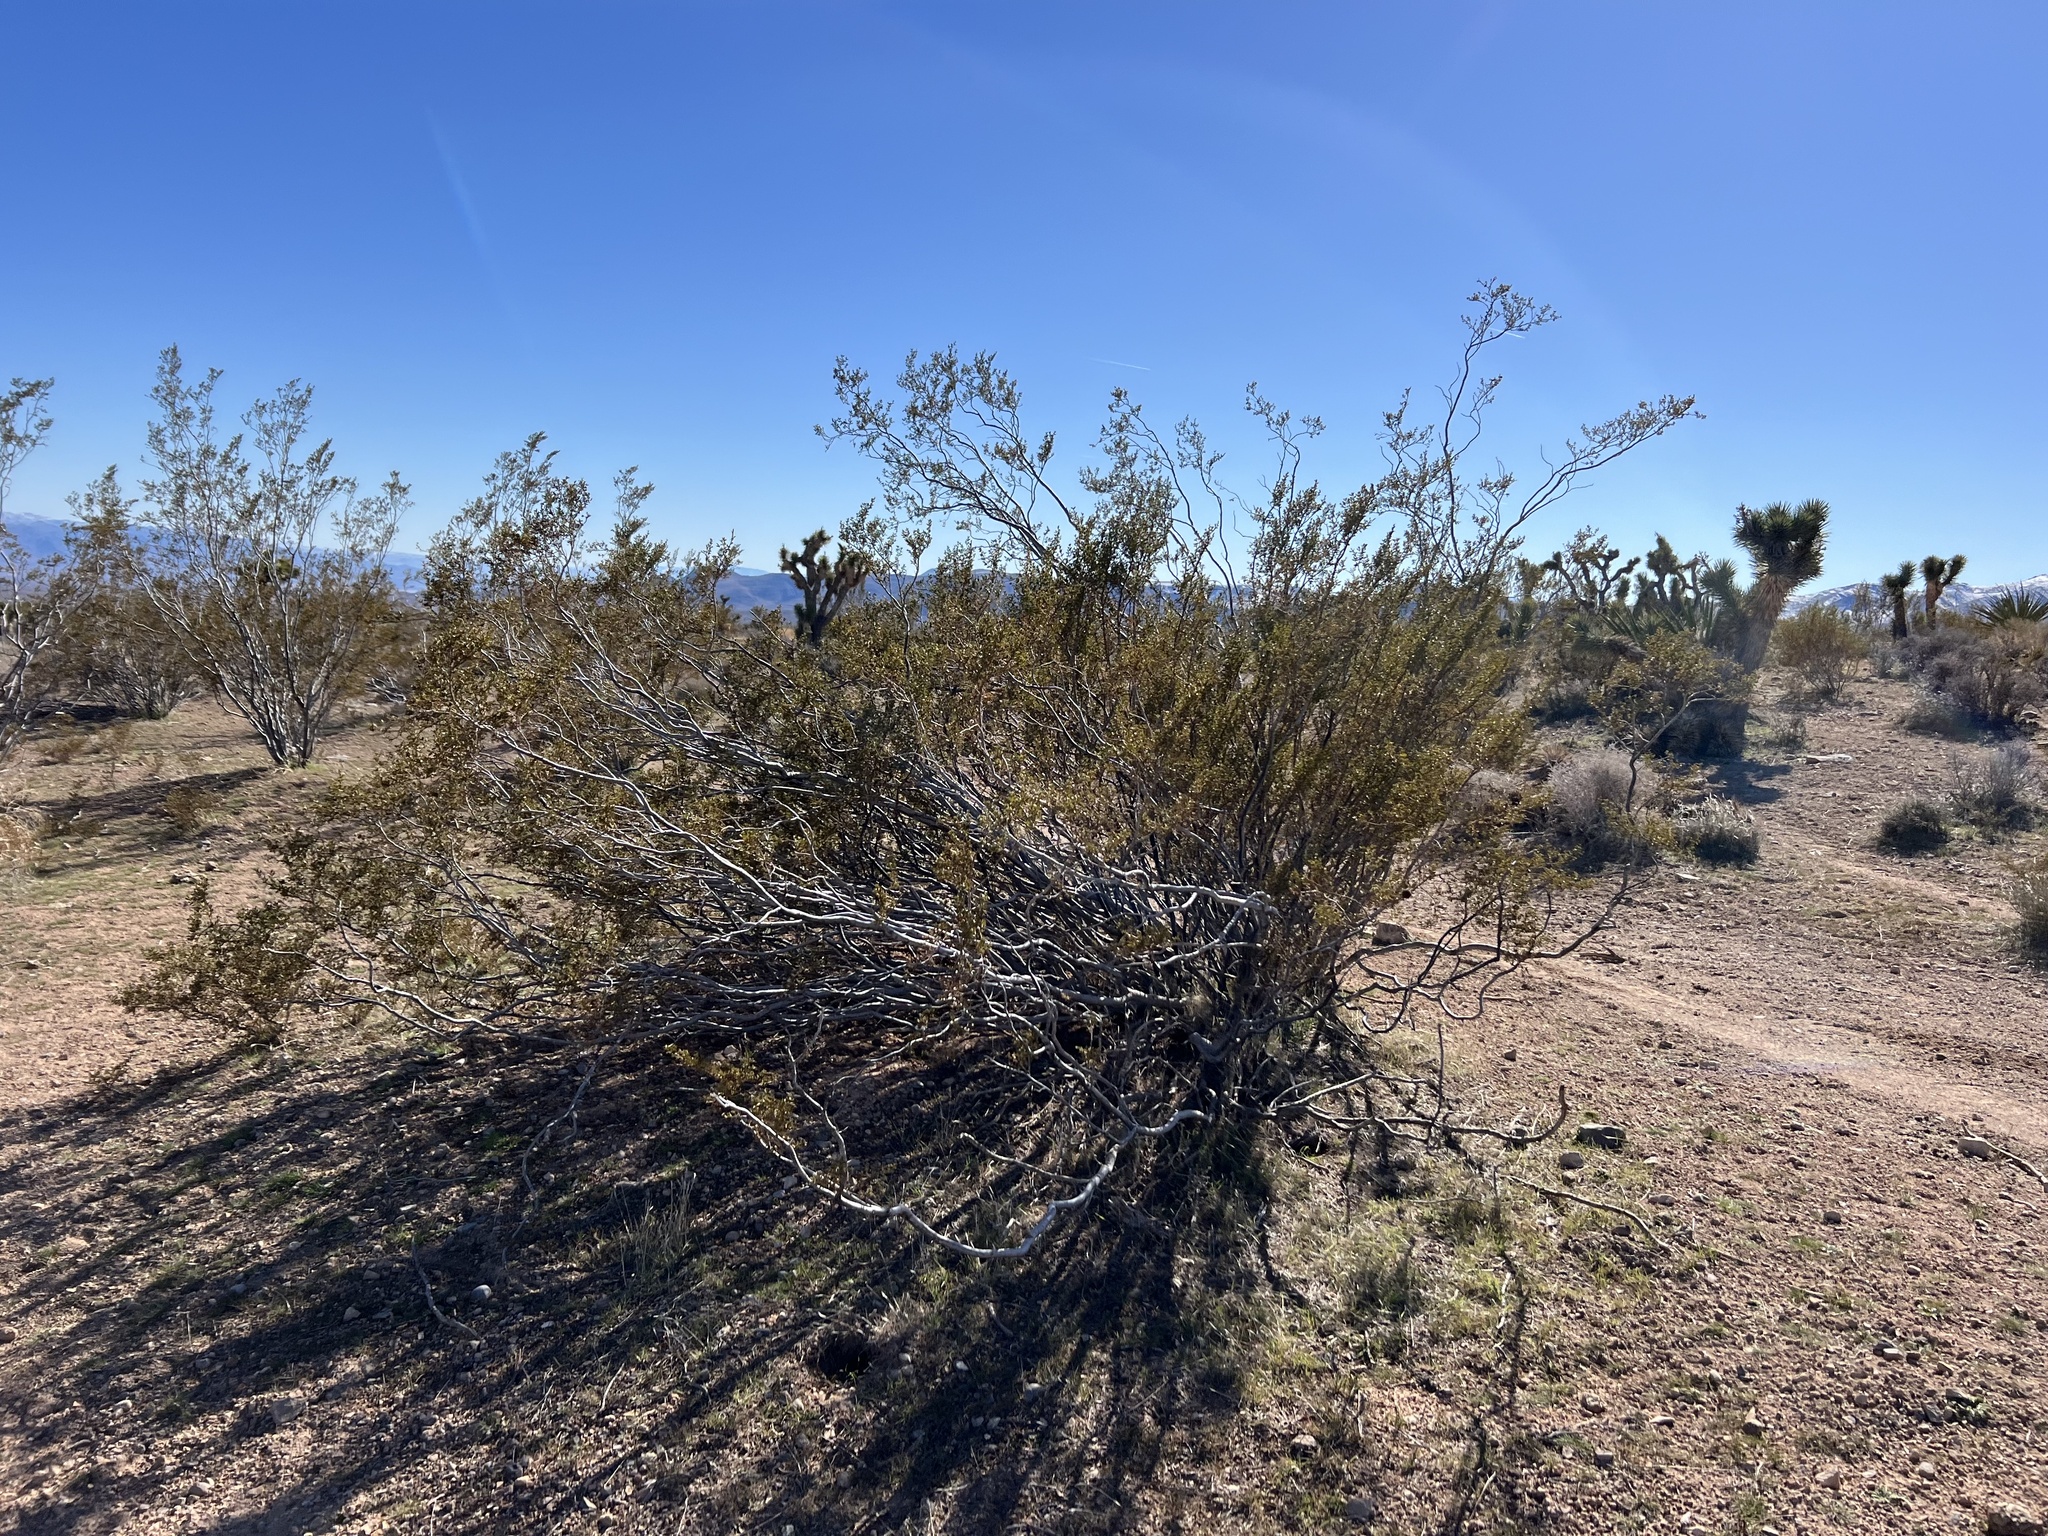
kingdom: Plantae
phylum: Tracheophyta
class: Magnoliopsida
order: Zygophyllales
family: Zygophyllaceae
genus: Larrea
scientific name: Larrea tridentata
